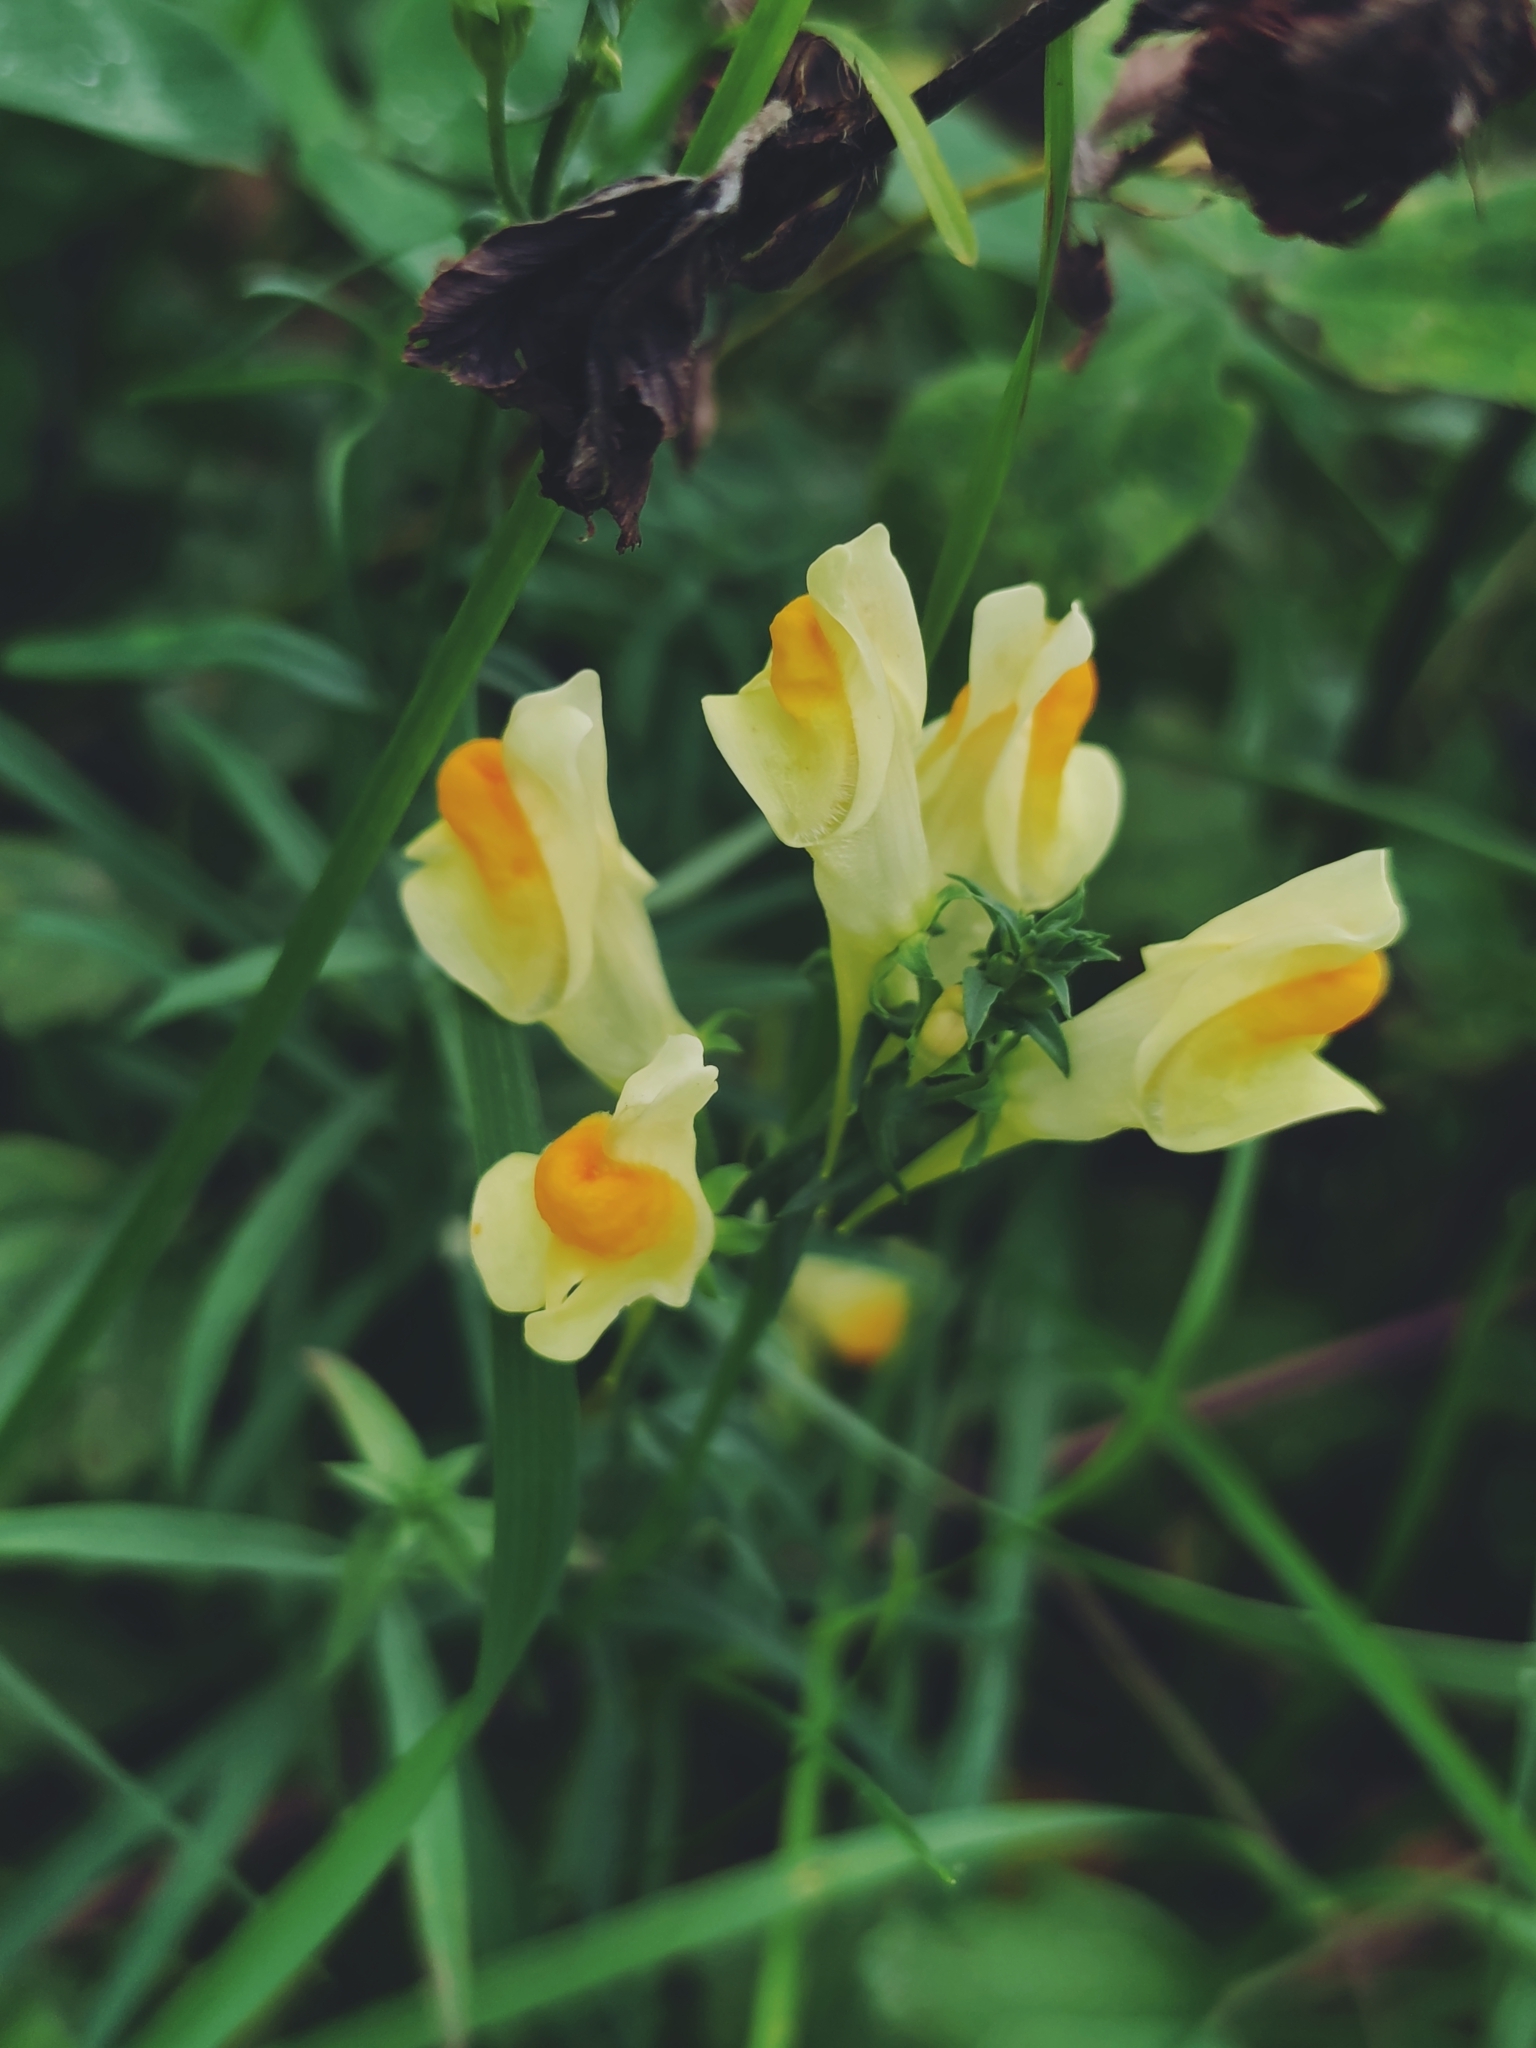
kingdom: Plantae
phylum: Tracheophyta
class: Magnoliopsida
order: Lamiales
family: Plantaginaceae
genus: Linaria
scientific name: Linaria vulgaris
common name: Butter and eggs
